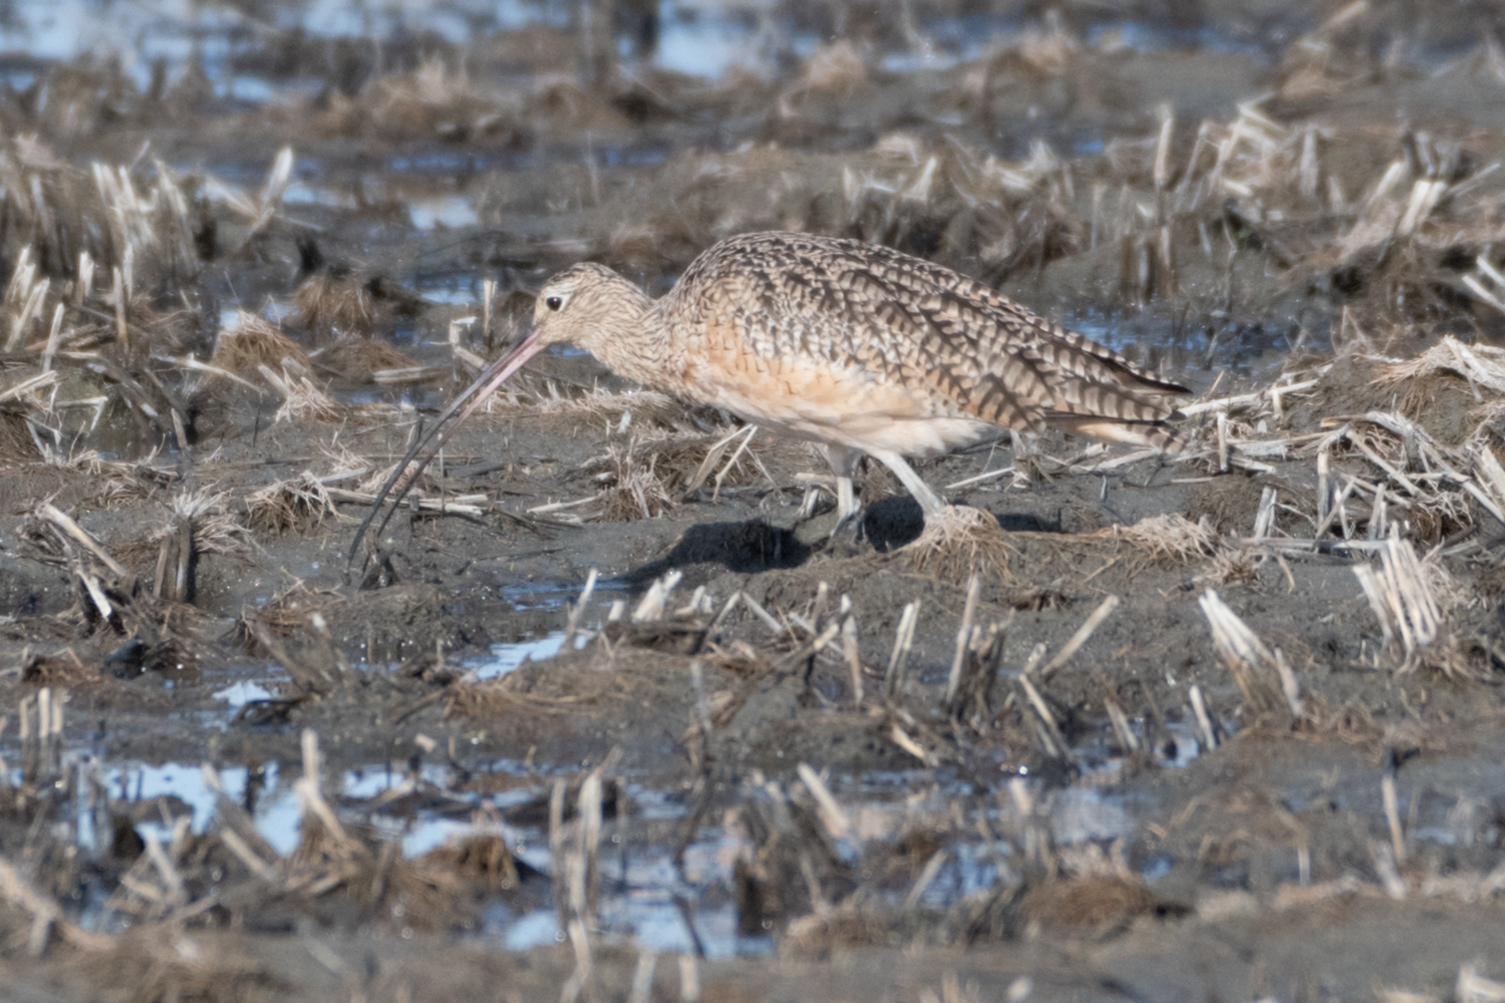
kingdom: Animalia
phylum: Chordata
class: Aves
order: Charadriiformes
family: Scolopacidae
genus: Numenius
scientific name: Numenius americanus
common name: Long-billed curlew
